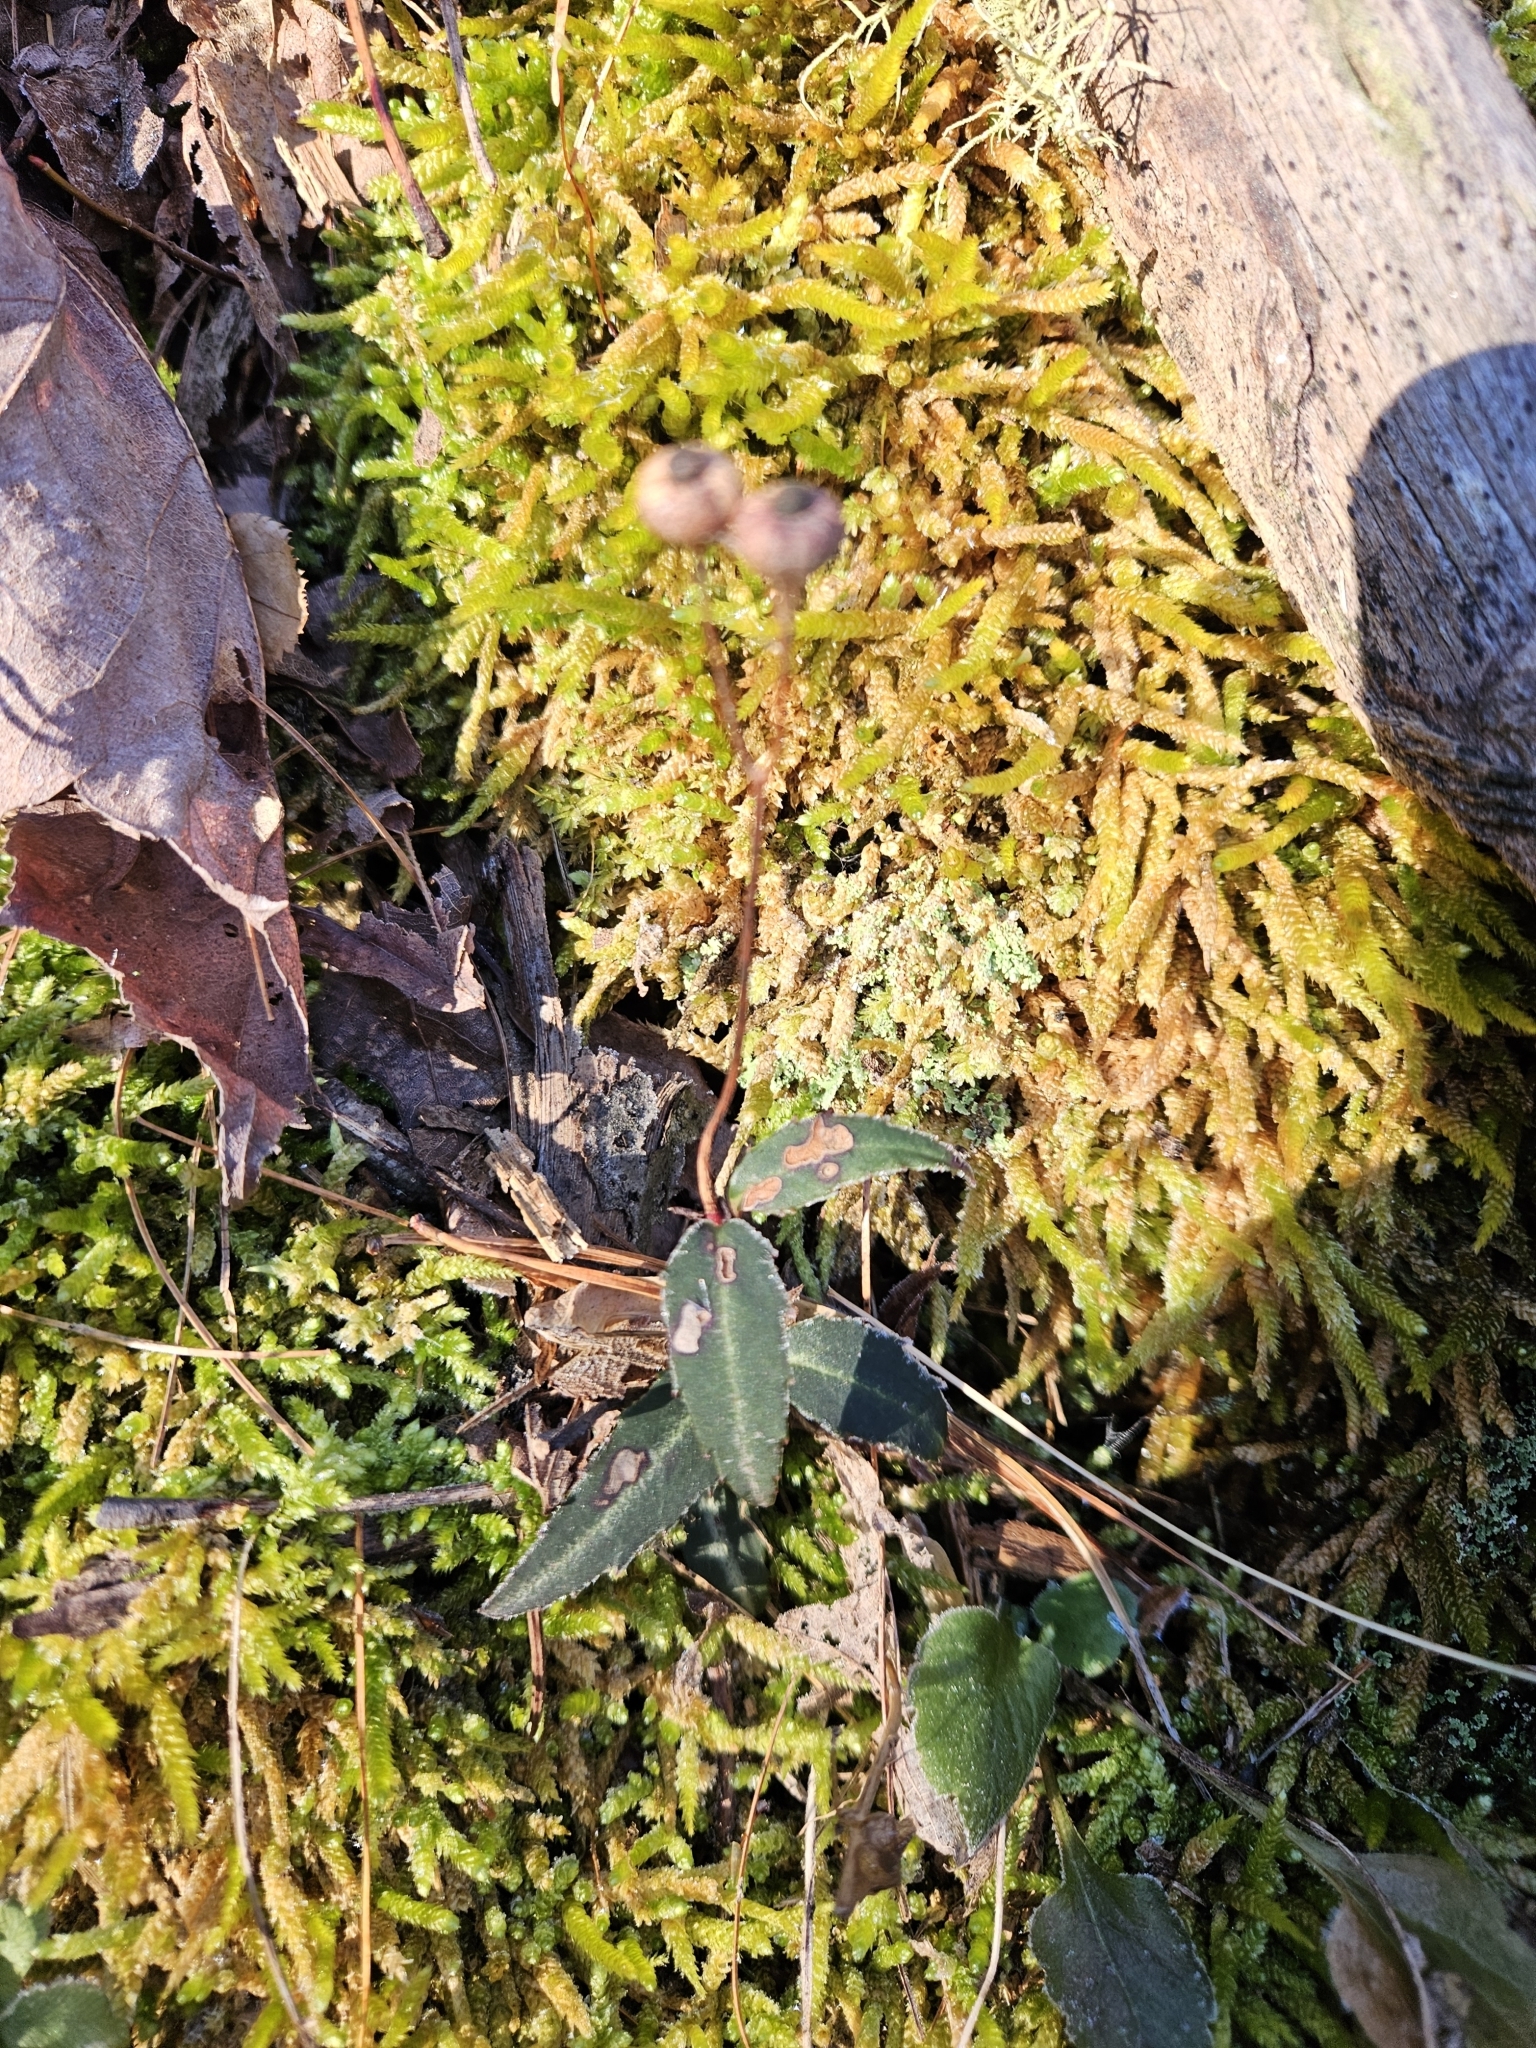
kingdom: Plantae
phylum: Tracheophyta
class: Magnoliopsida
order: Ericales
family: Ericaceae
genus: Chimaphila
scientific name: Chimaphila maculata
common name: Spotted pipsissewa
